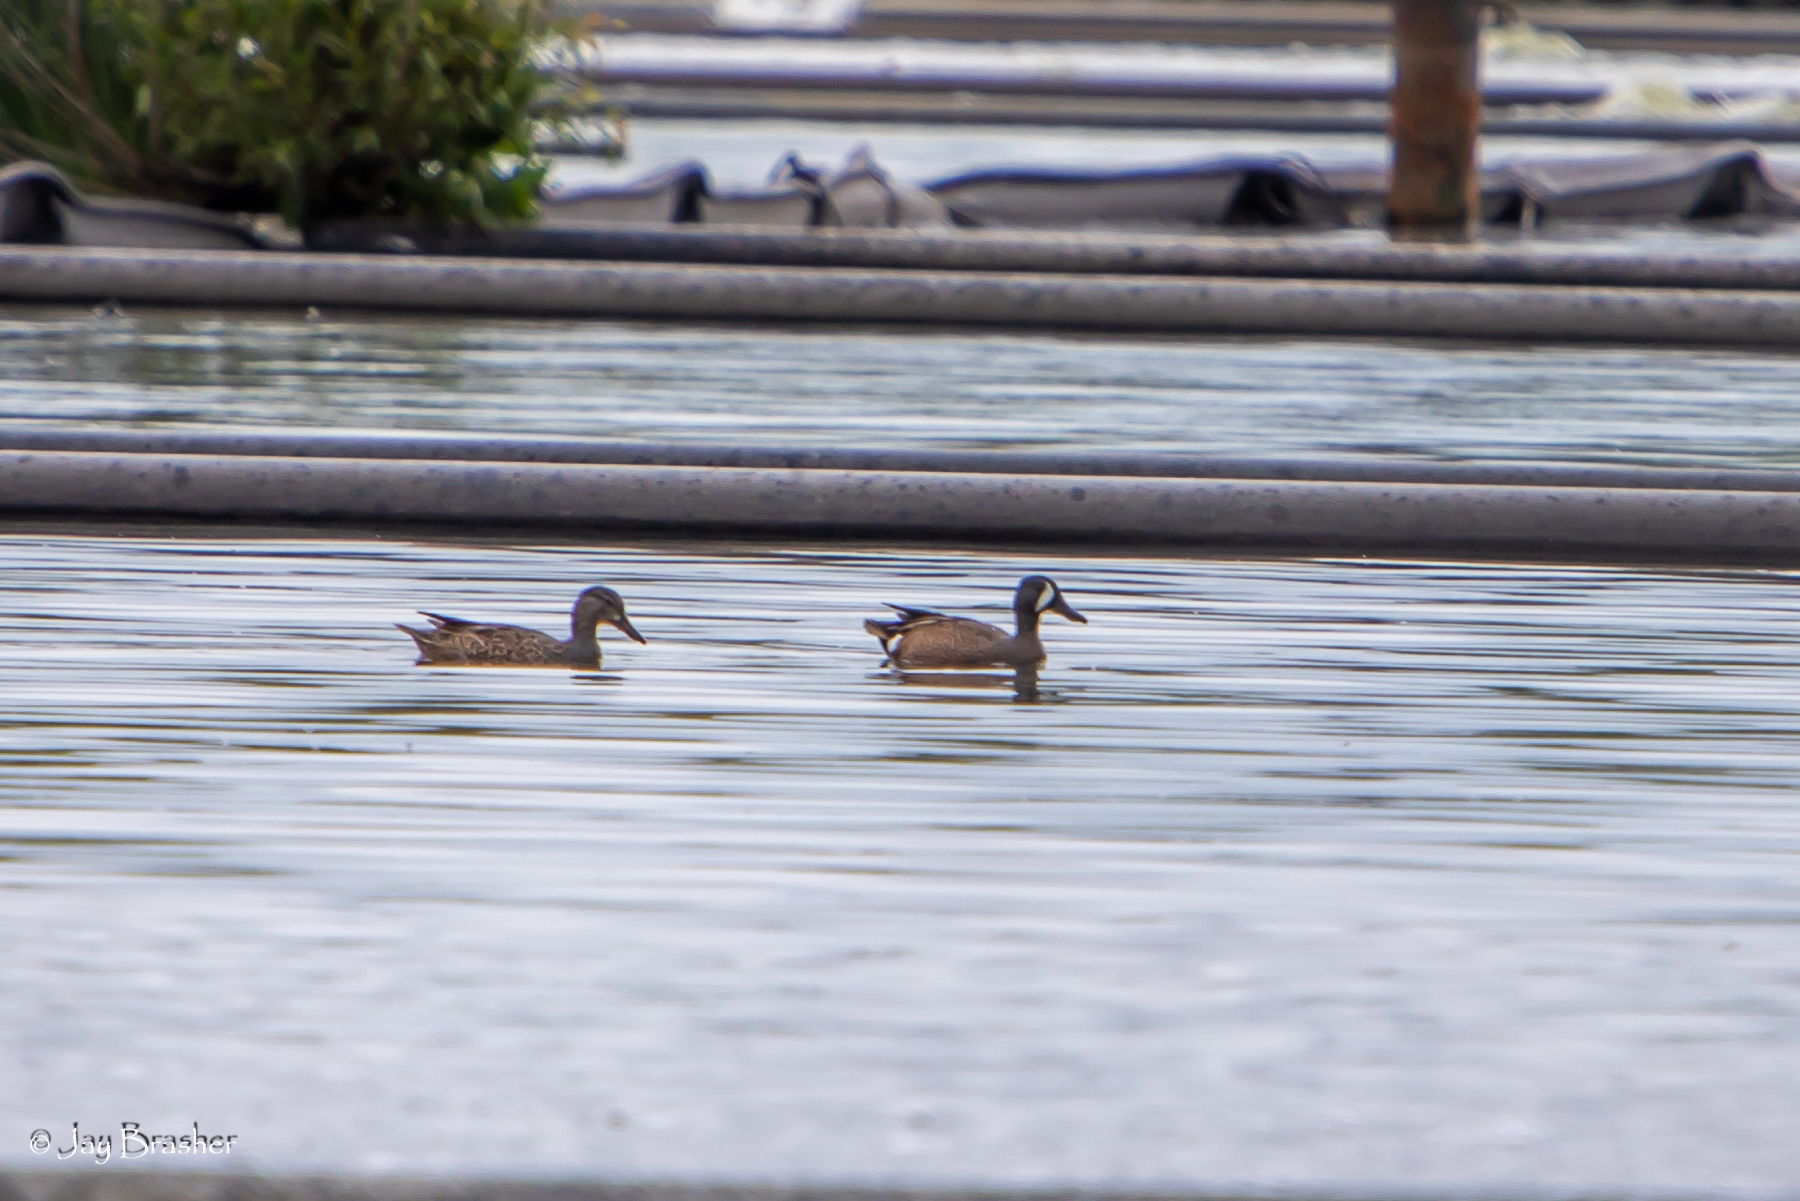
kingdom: Animalia
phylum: Chordata
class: Aves
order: Anseriformes
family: Anatidae
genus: Spatula
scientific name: Spatula discors
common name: Blue-winged teal
